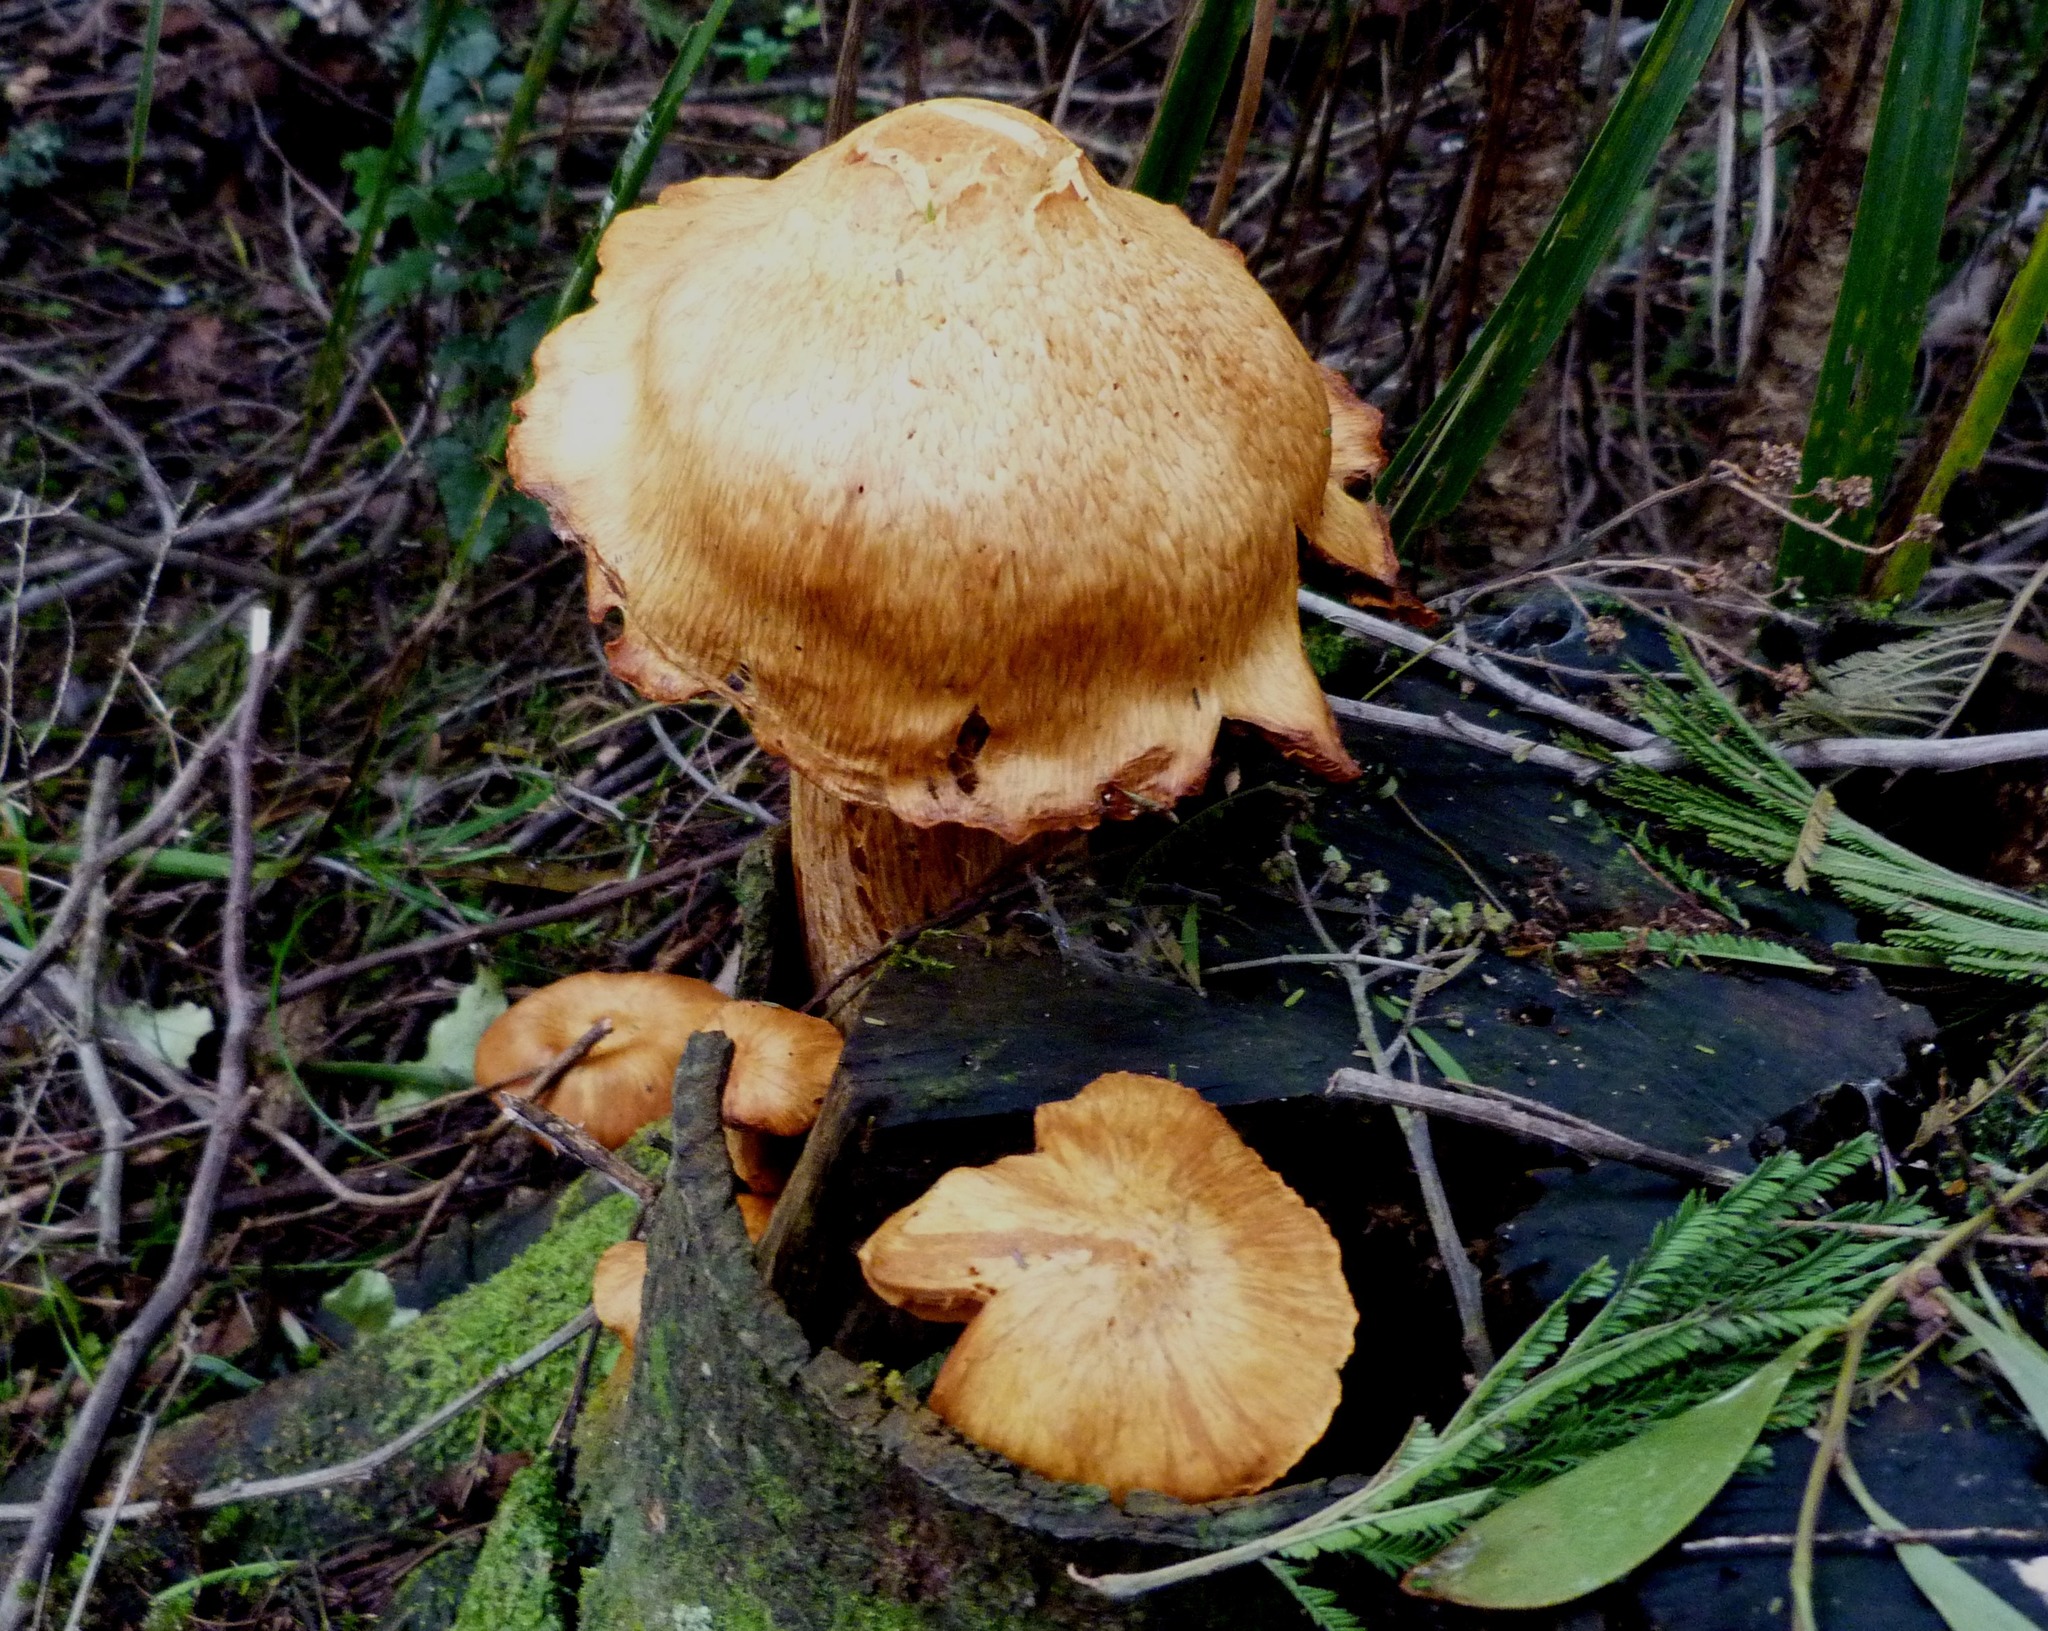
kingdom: Fungi
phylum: Basidiomycota
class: Agaricomycetes
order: Agaricales
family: Hymenogastraceae
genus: Gymnopilus
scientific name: Gymnopilus junonius
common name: Spectacular rustgill
